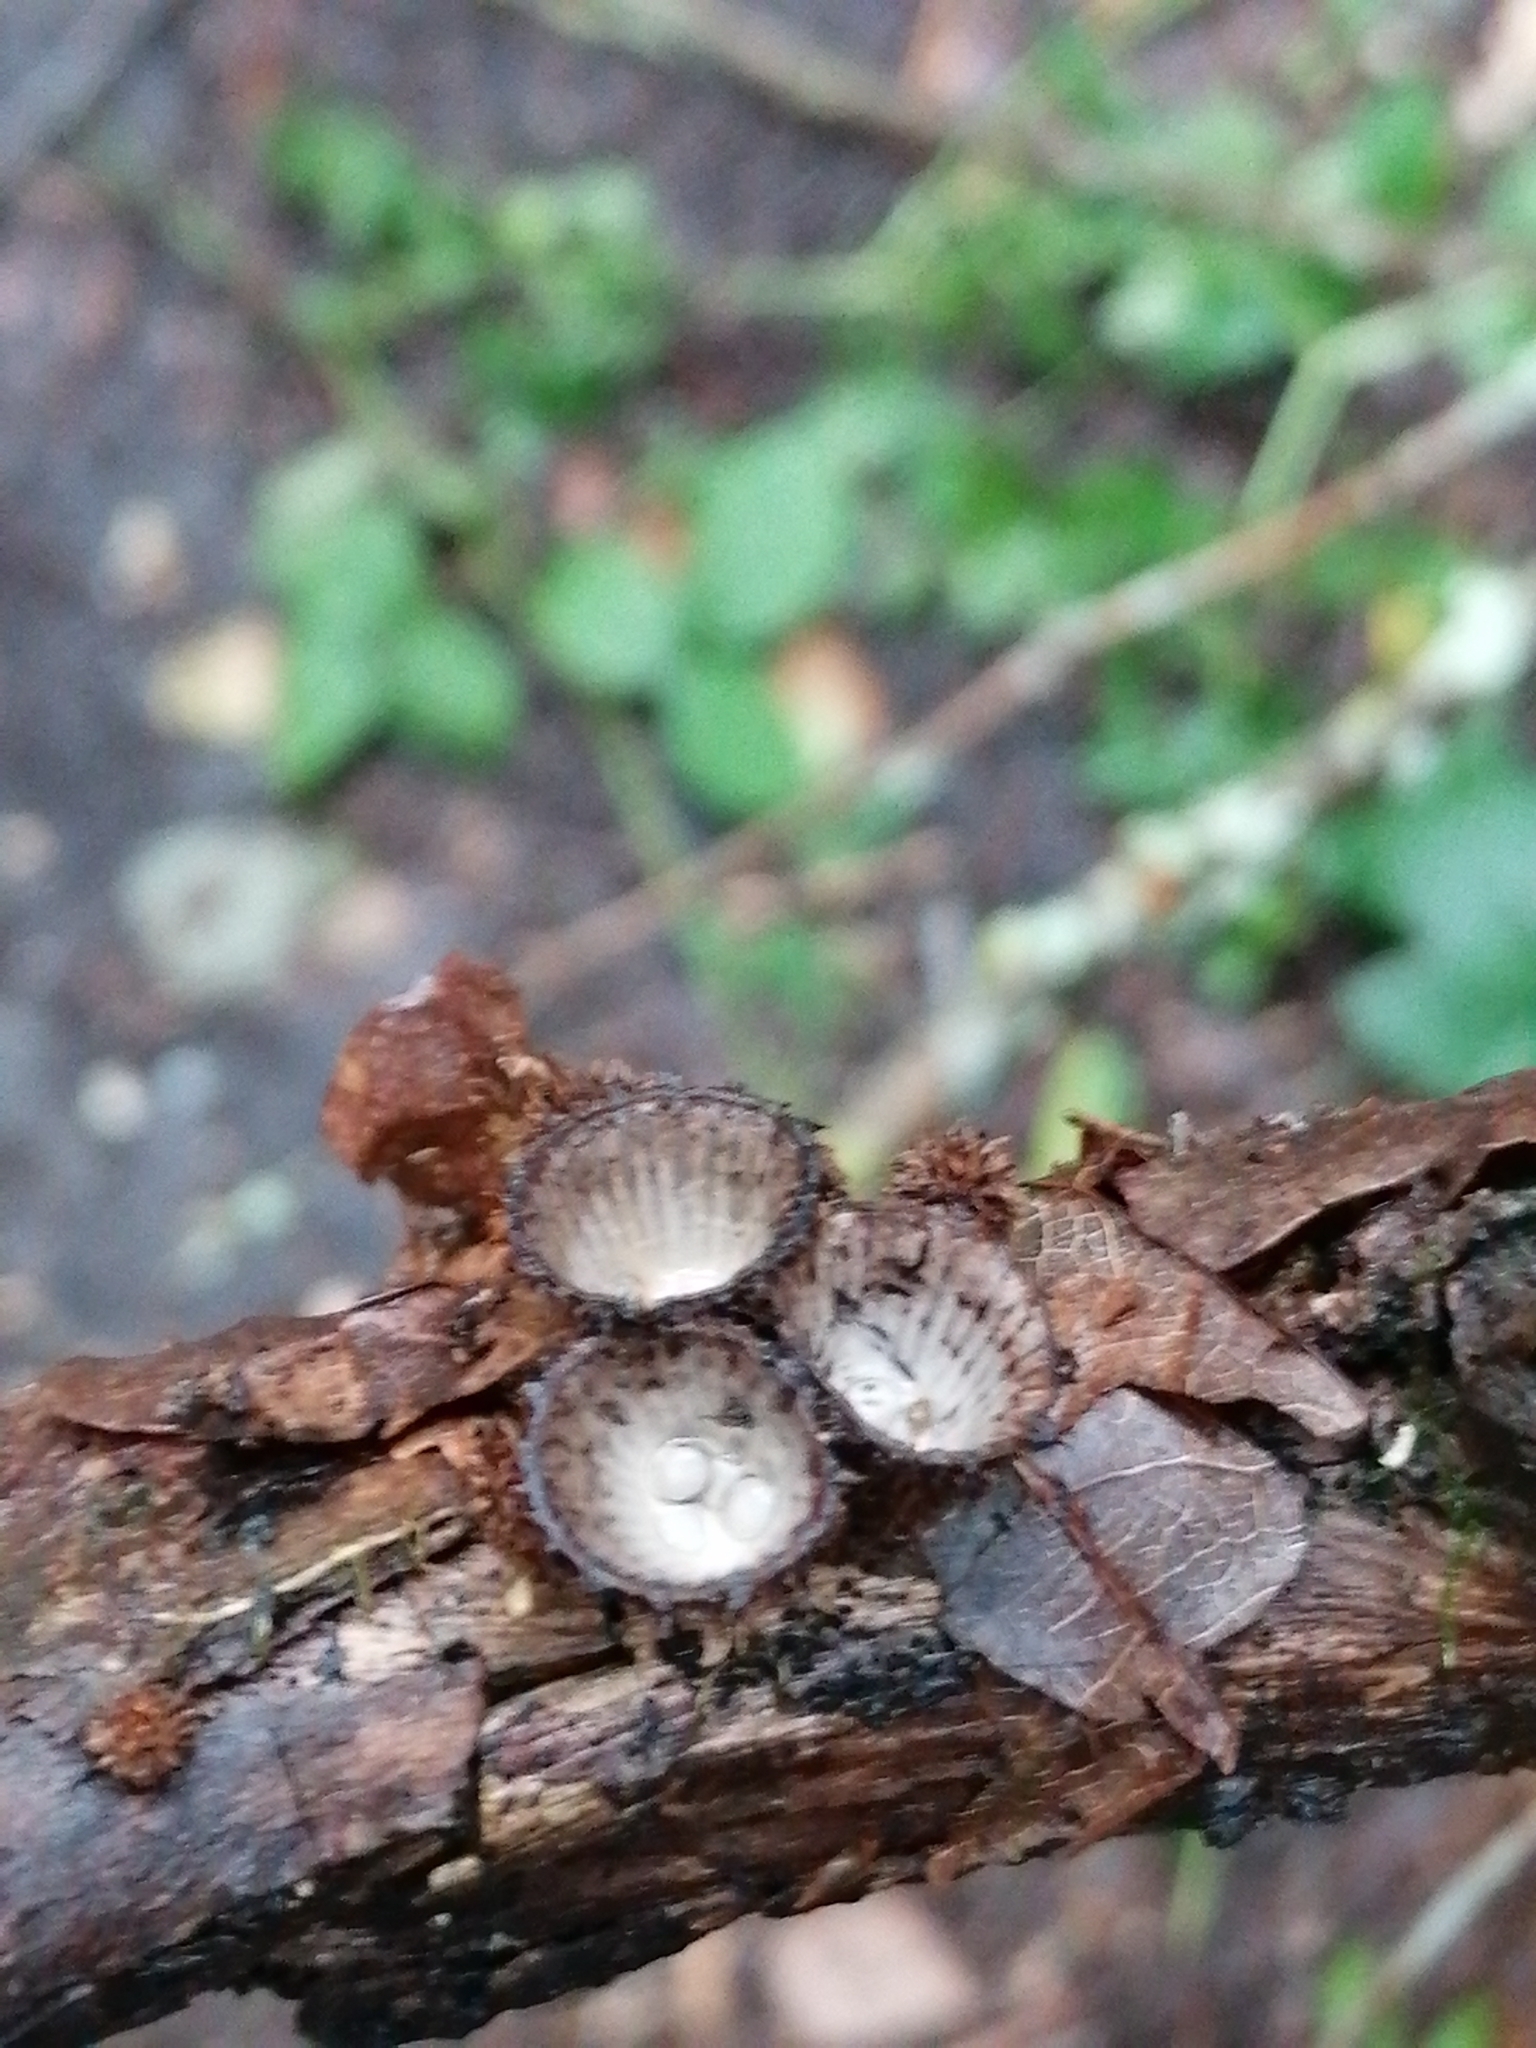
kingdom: Fungi
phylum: Basidiomycota
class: Agaricomycetes
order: Agaricales
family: Agaricaceae
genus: Cyathus
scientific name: Cyathus striatus
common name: Fluted bird's nest
